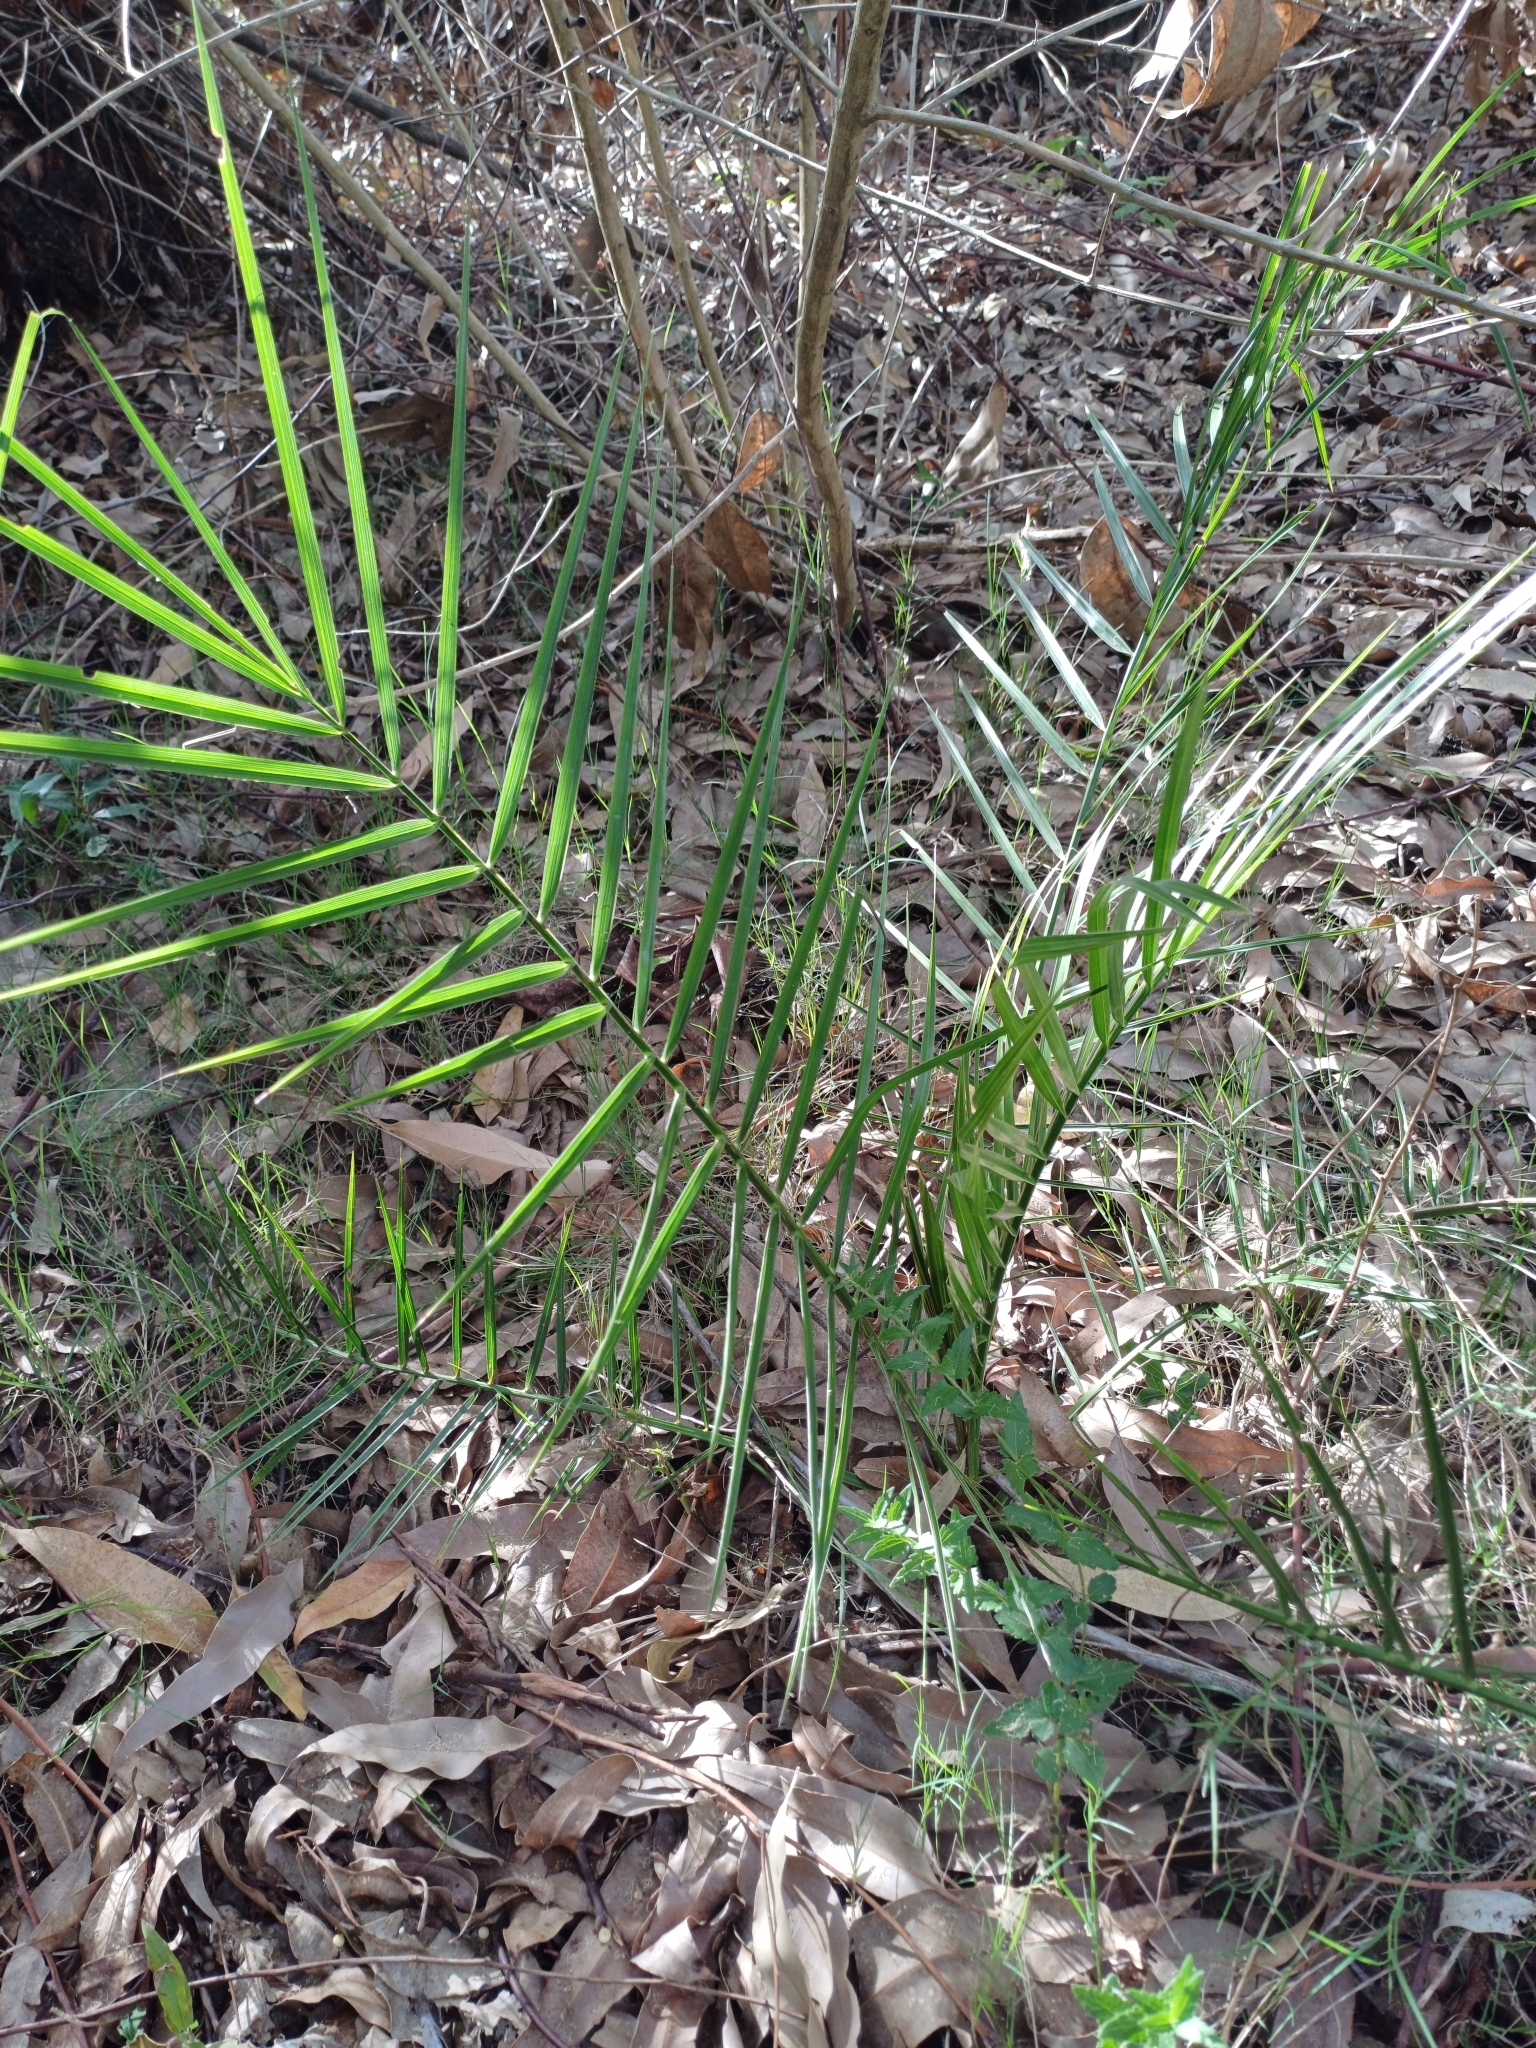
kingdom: Plantae
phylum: Tracheophyta
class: Liliopsida
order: Arecales
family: Arecaceae
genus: Phoenix
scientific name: Phoenix canariensis
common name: Canary island date palm
